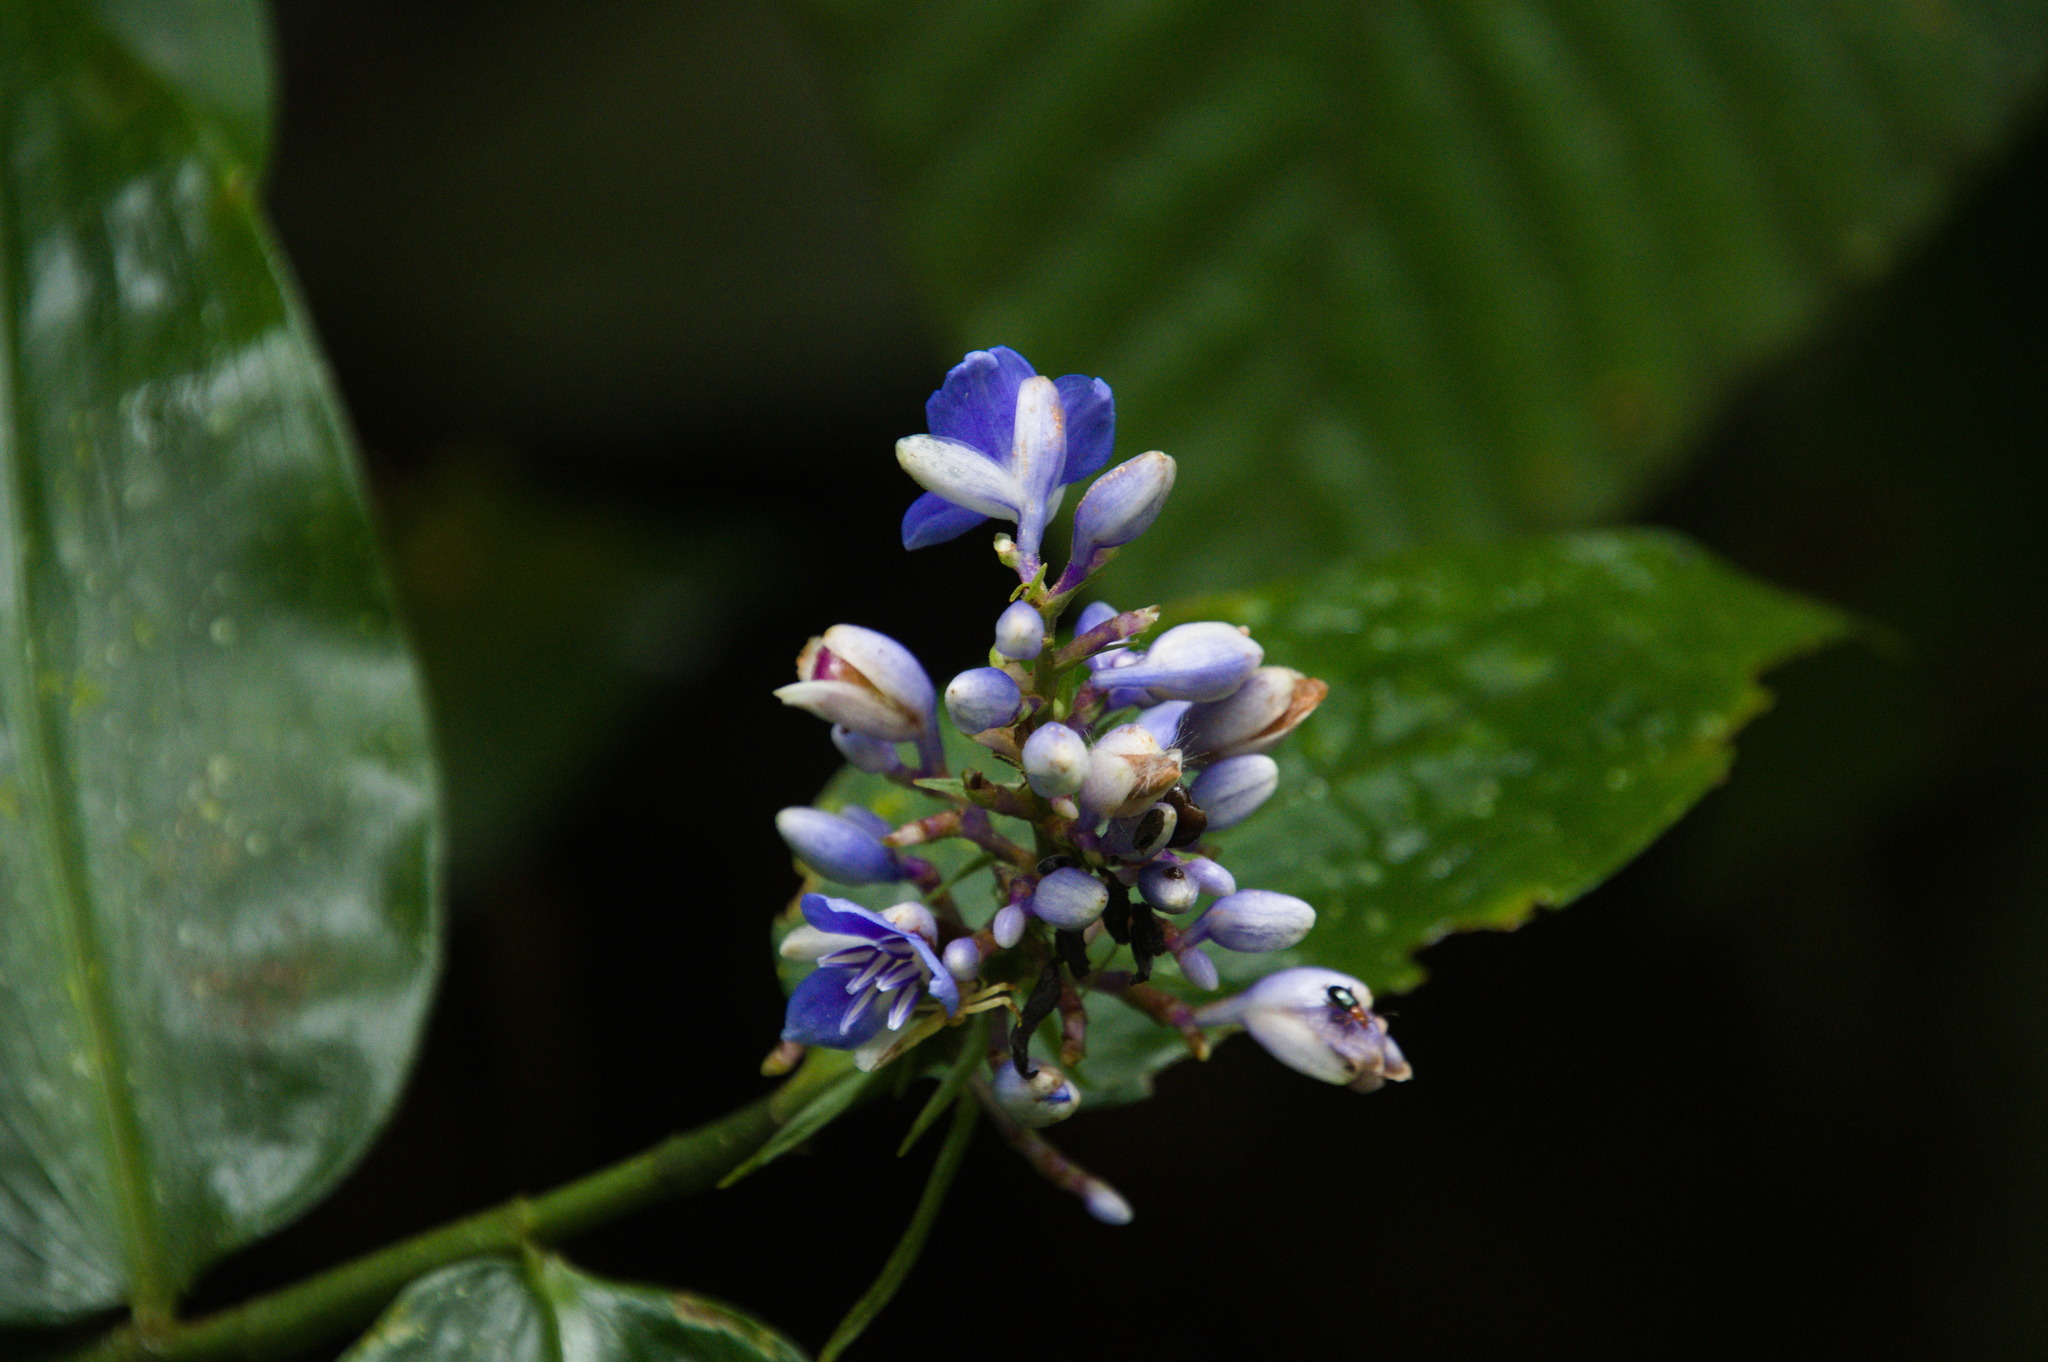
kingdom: Plantae
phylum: Tracheophyta
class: Liliopsida
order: Commelinales
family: Commelinaceae
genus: Dichorisandra
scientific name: Dichorisandra hexandra
